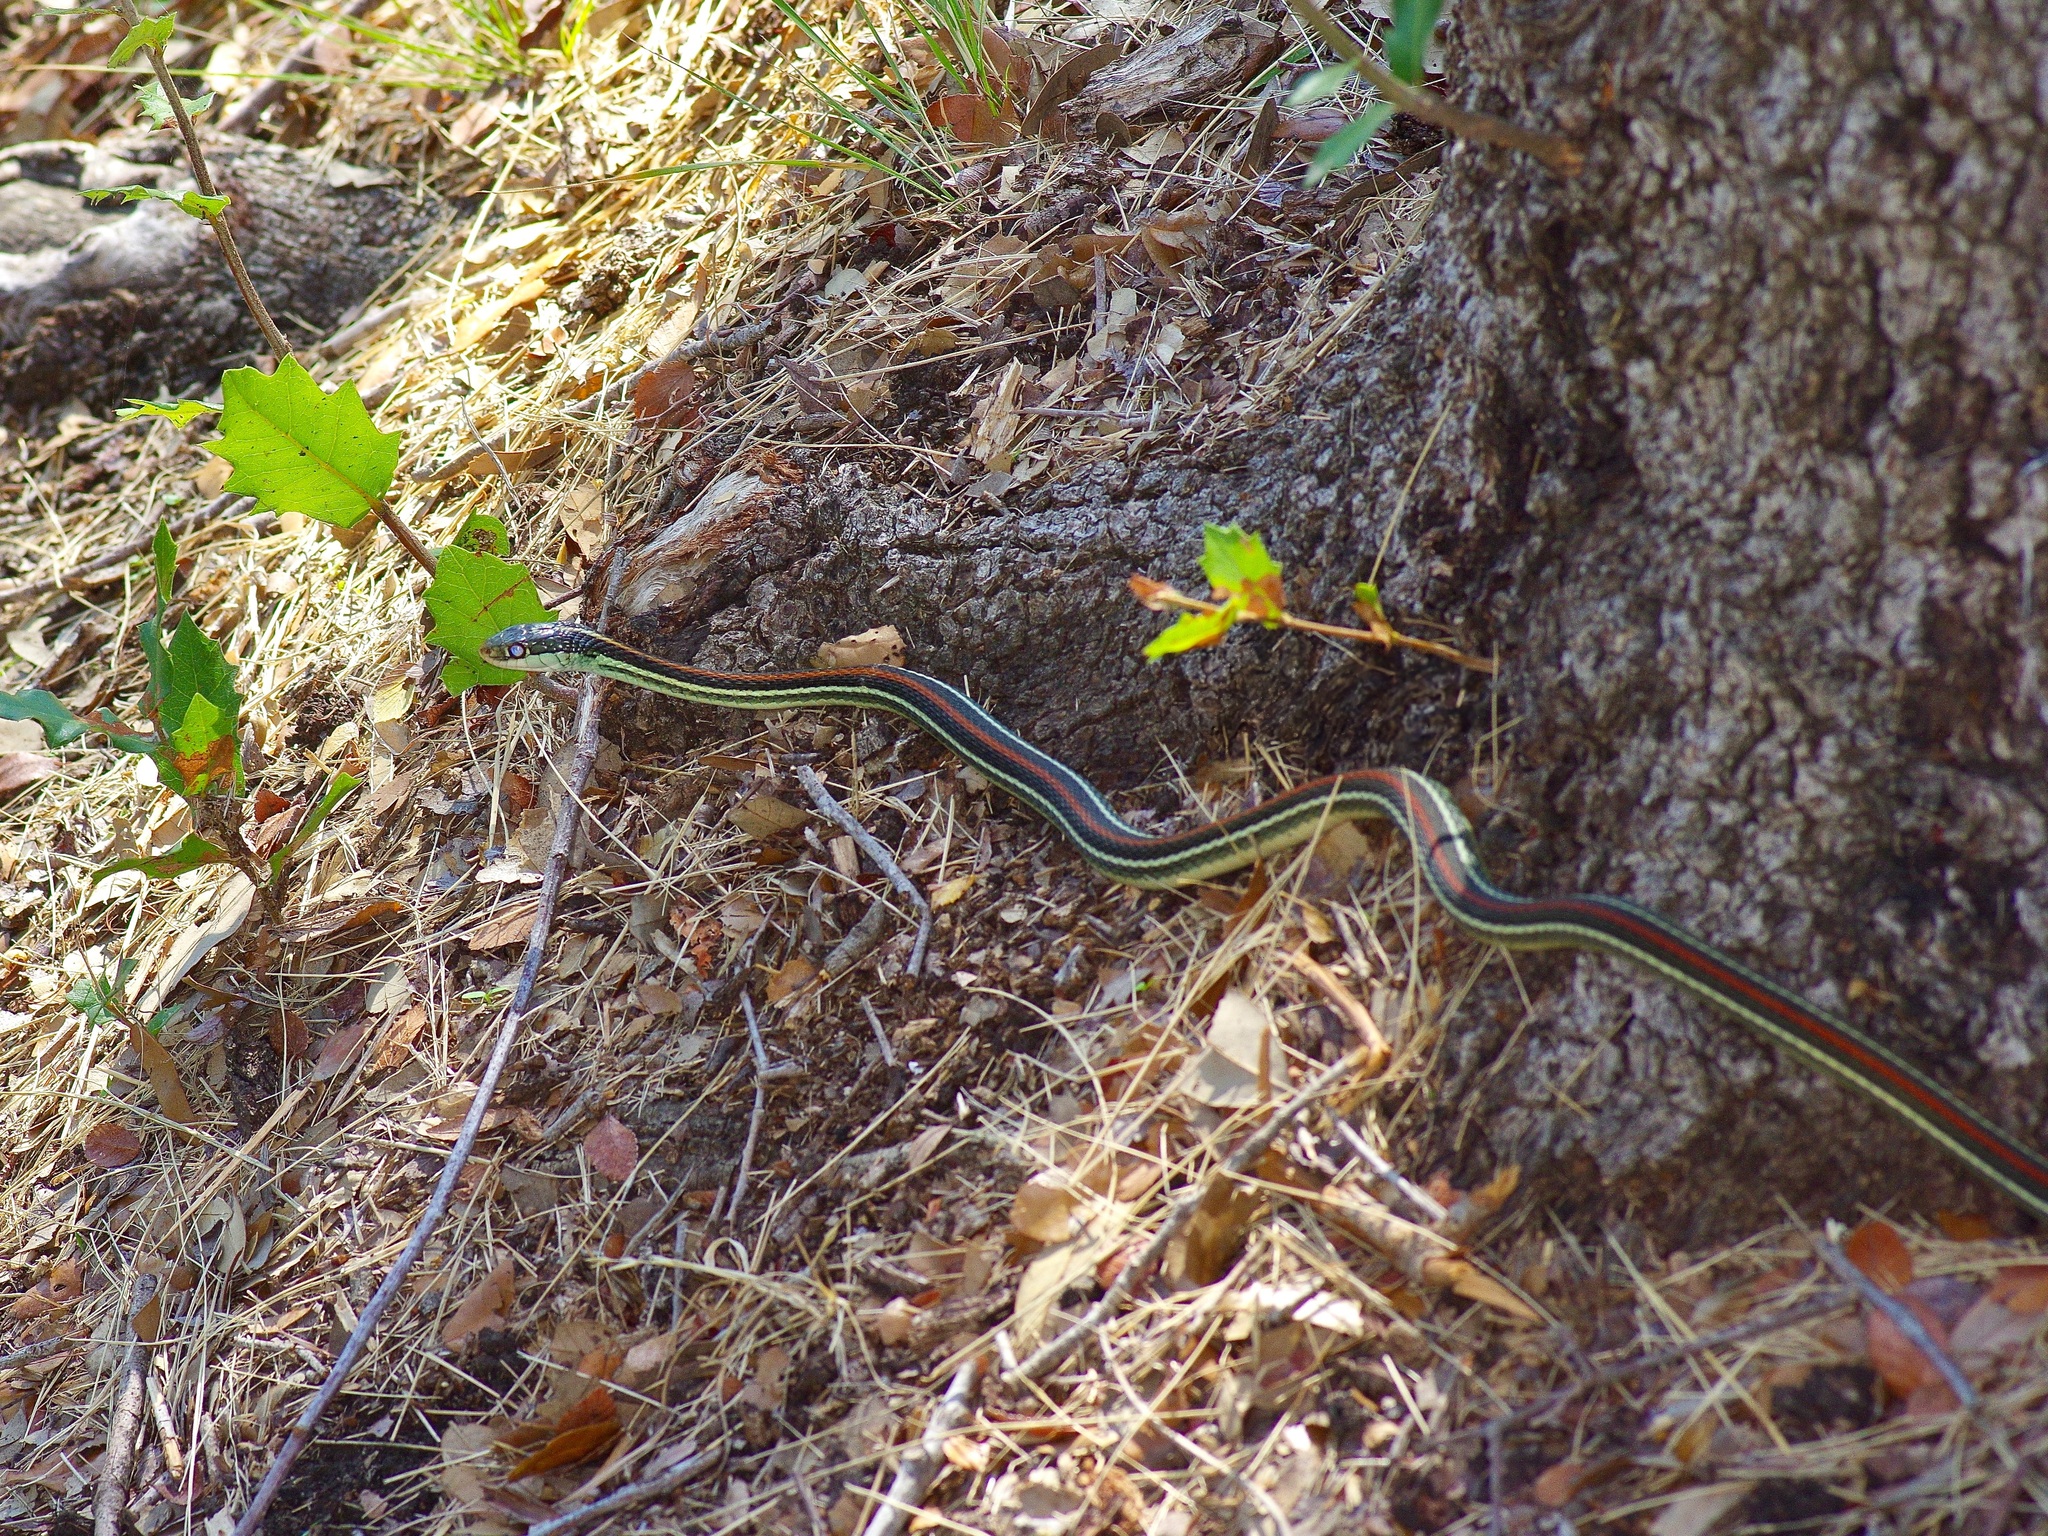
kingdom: Animalia
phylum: Chordata
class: Squamata
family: Colubridae
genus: Thamnophis
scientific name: Thamnophis proximus
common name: Western ribbon snake
